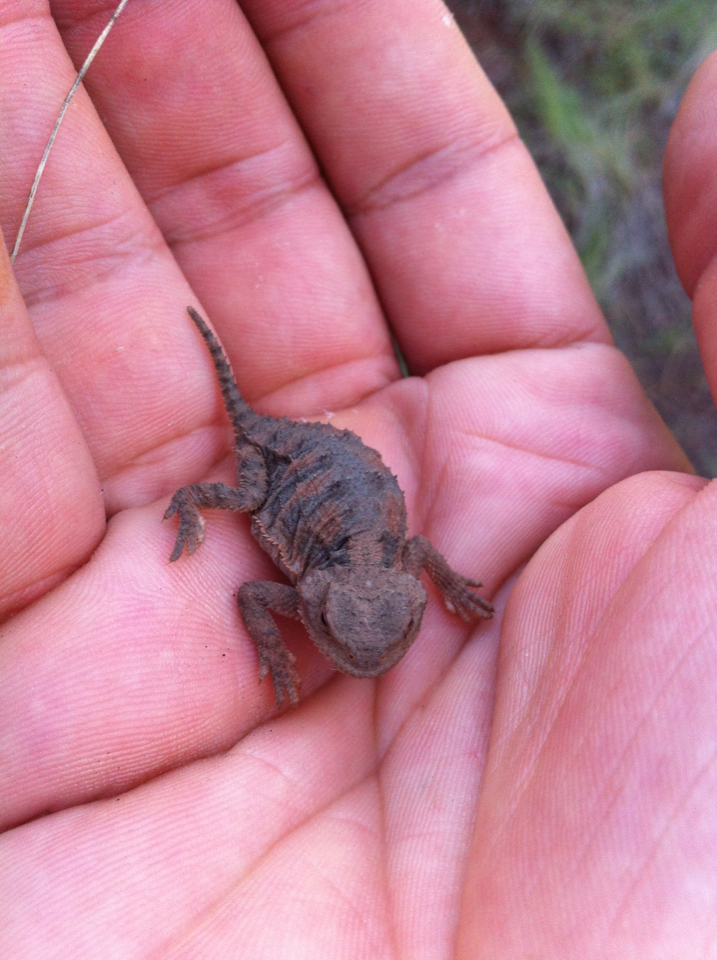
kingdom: Animalia
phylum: Chordata
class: Squamata
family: Phrynosomatidae
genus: Phrynosoma
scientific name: Phrynosoma hernandesi
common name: Greater short-horned lizard
